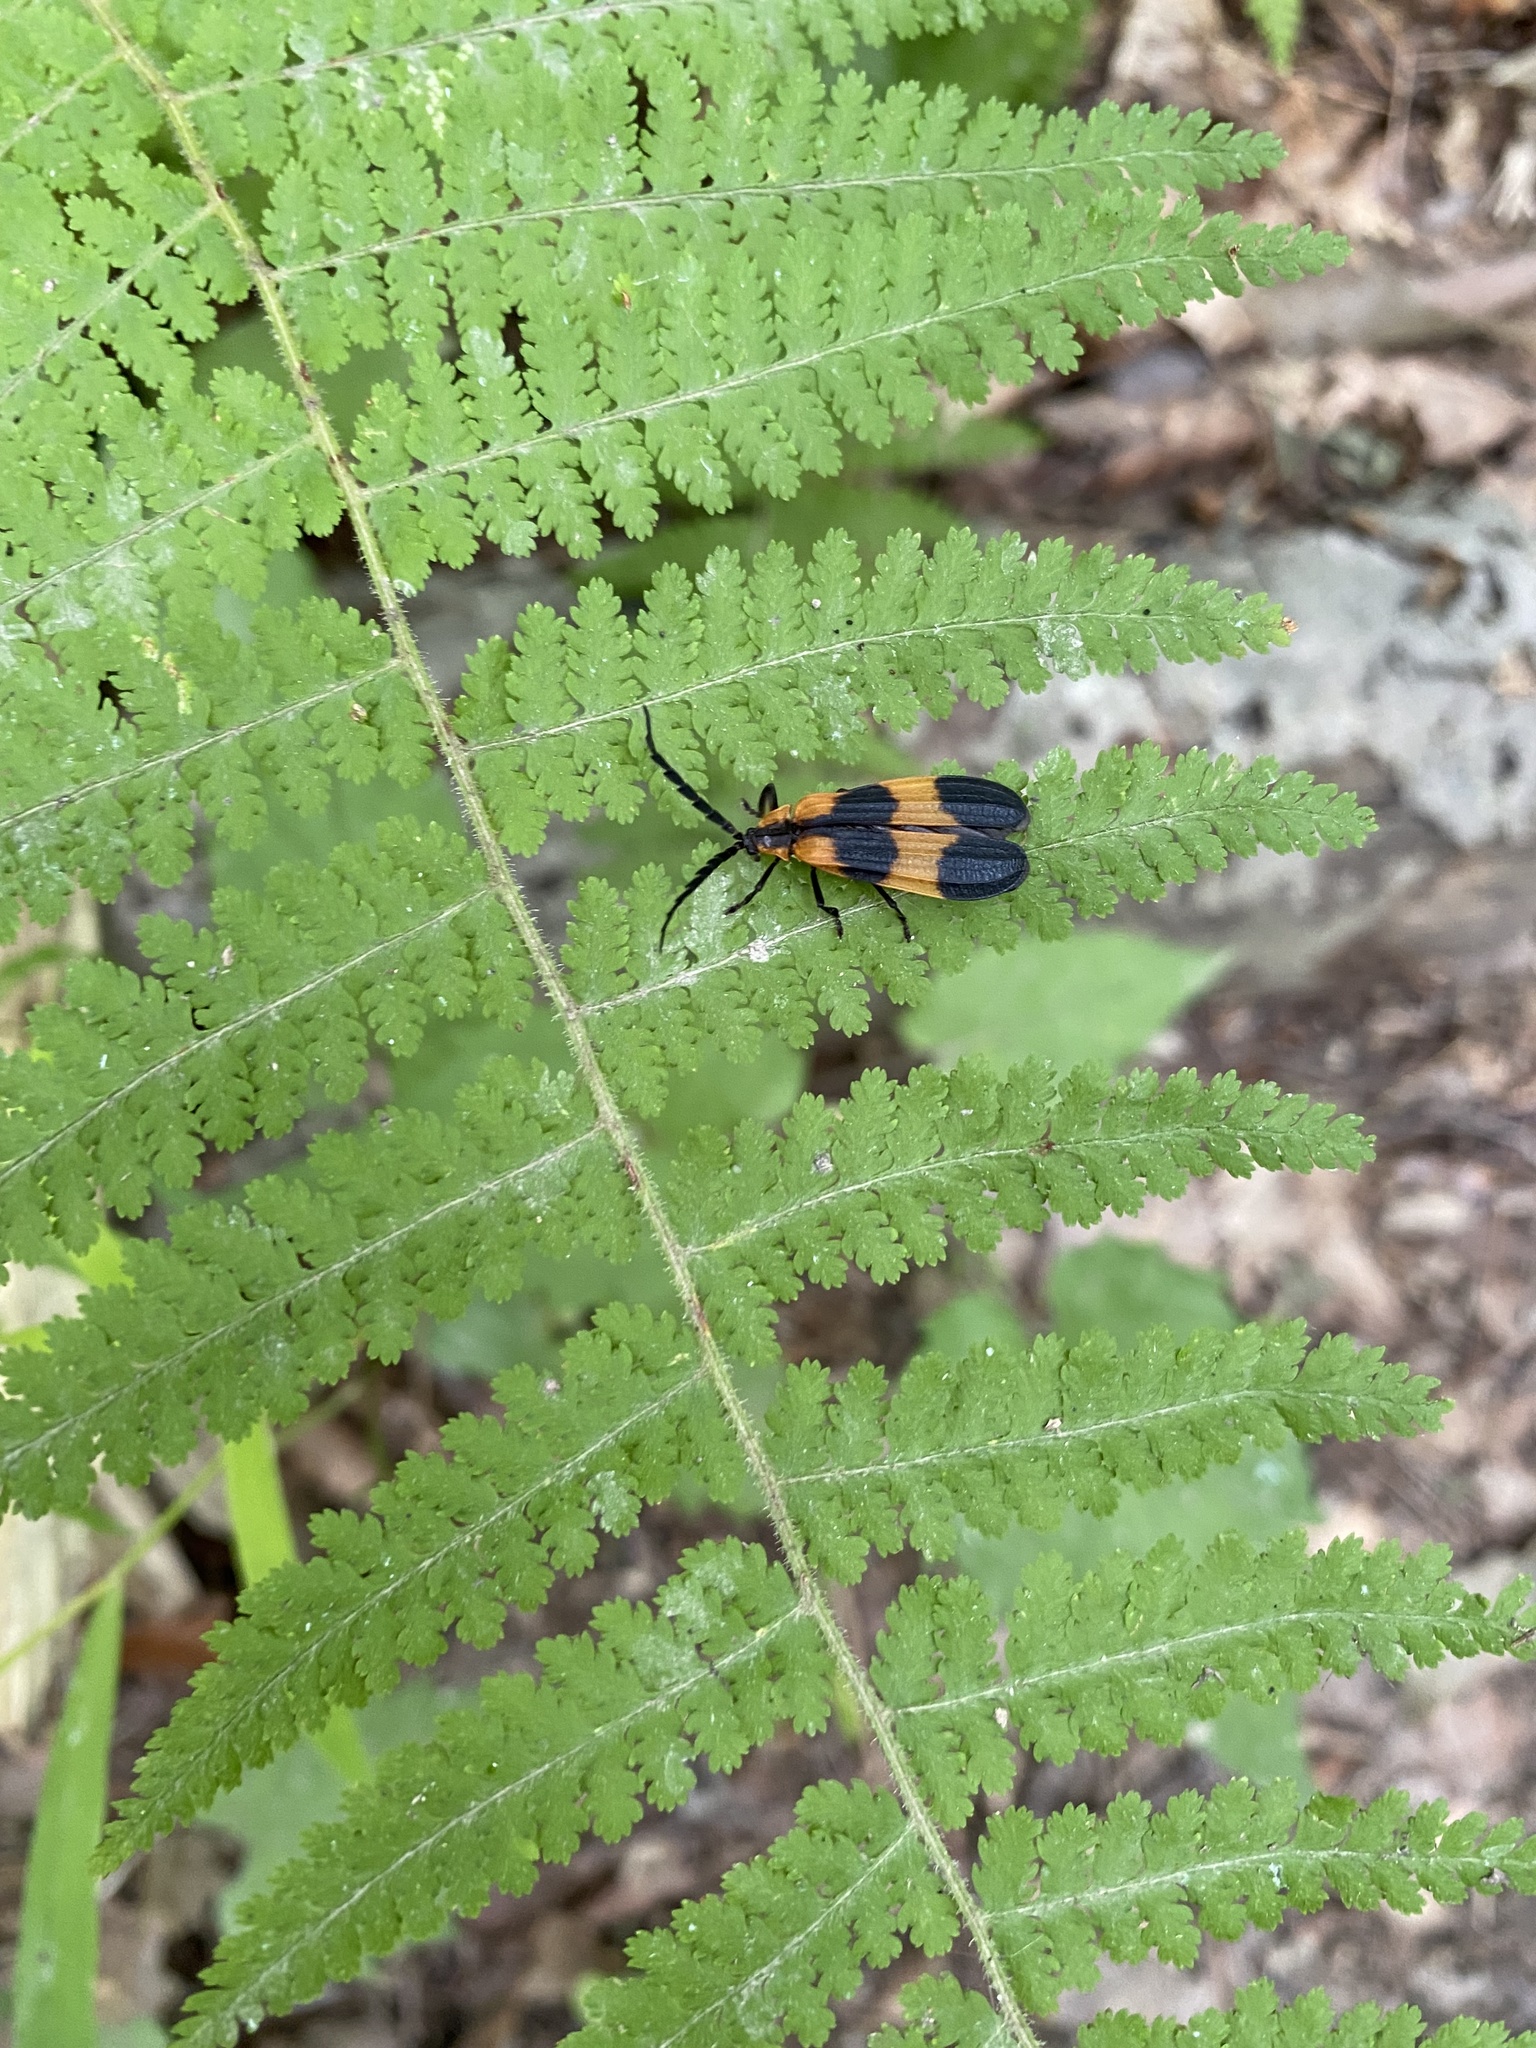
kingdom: Plantae
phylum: Tracheophyta
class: Polypodiopsida
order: Polypodiales
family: Dennstaedtiaceae
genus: Sitobolium
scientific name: Sitobolium punctilobum
